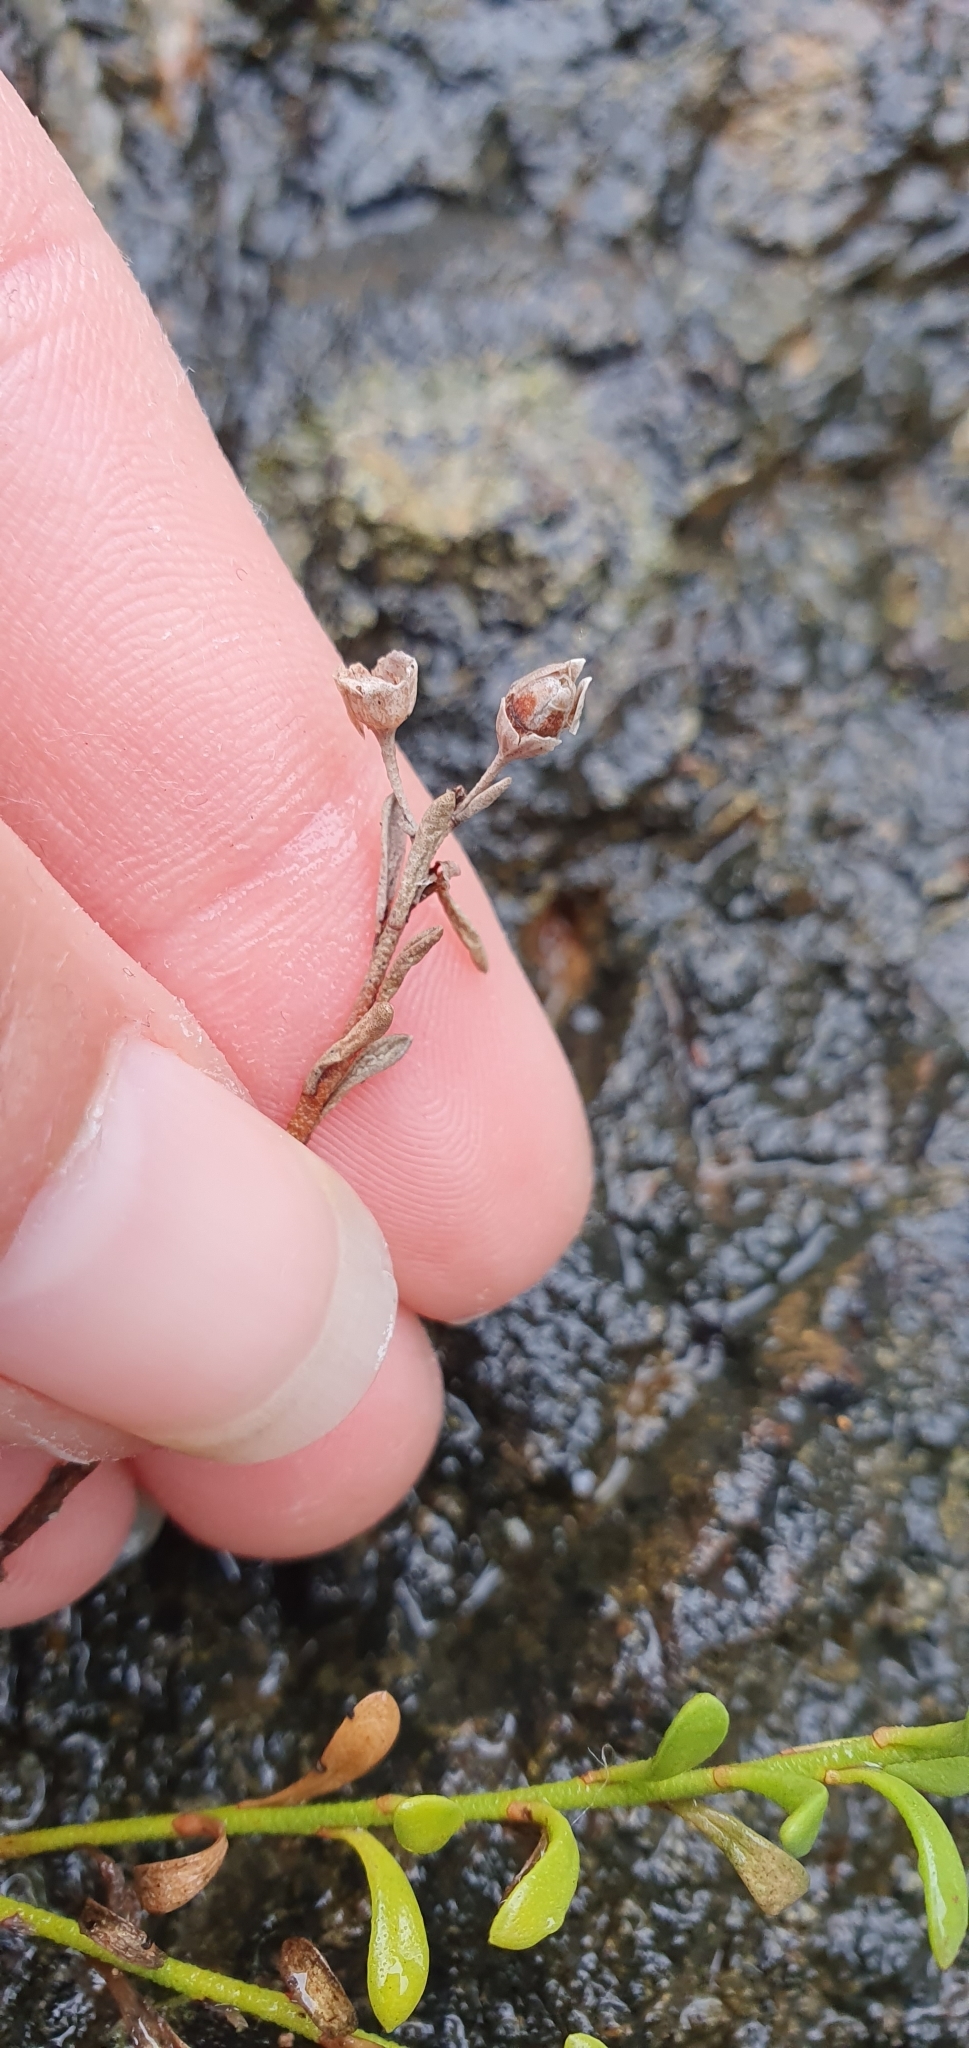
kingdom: Plantae
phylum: Tracheophyta
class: Magnoliopsida
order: Ericales
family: Primulaceae
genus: Samolus
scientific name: Samolus repens
